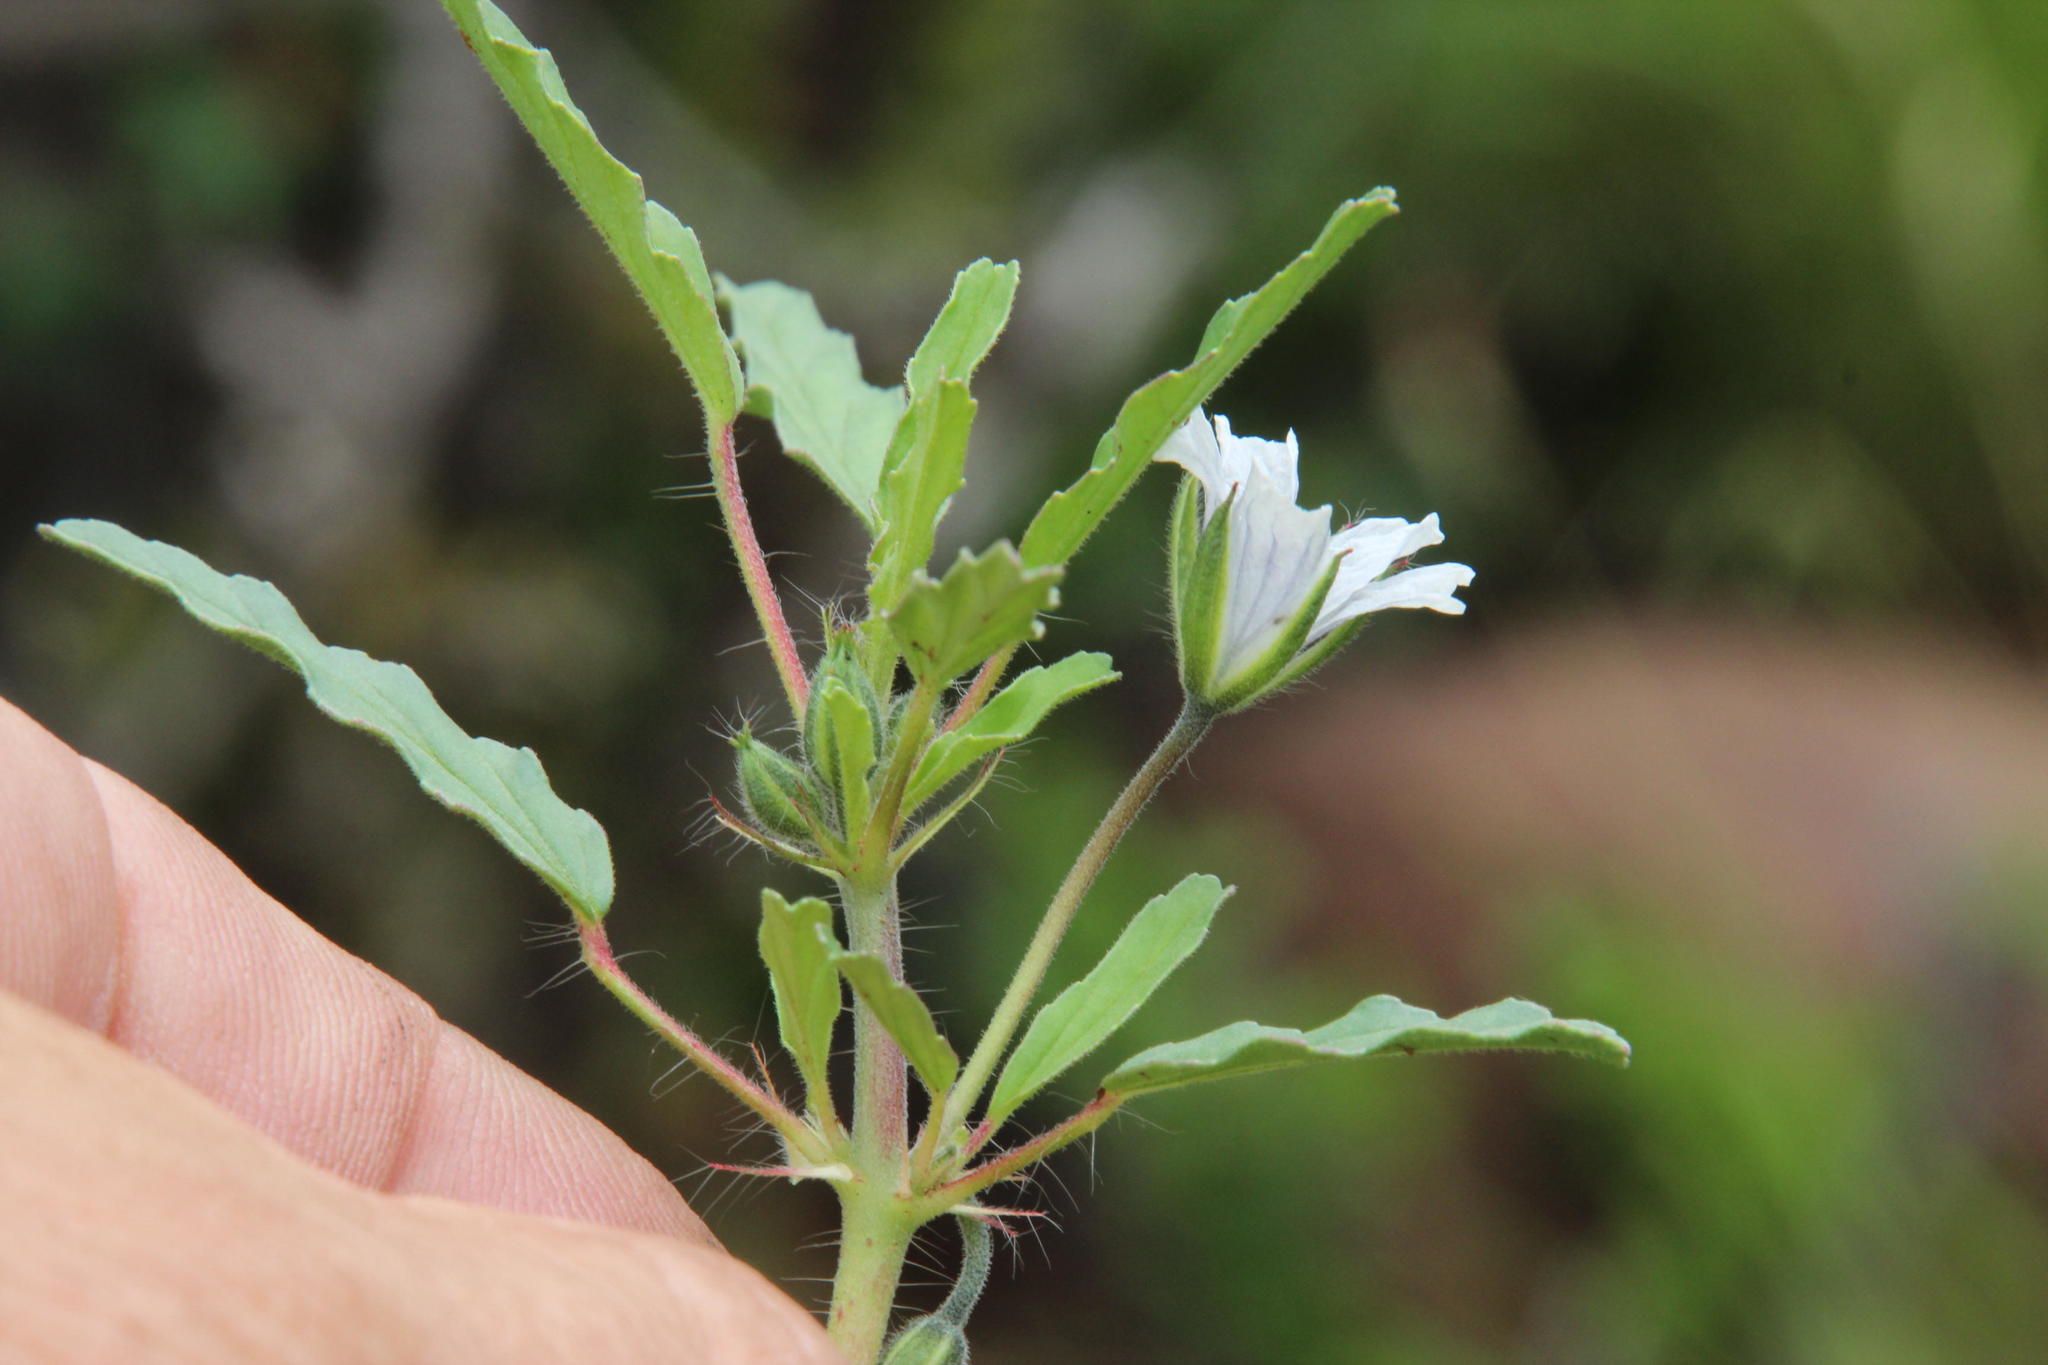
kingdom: Plantae
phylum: Tracheophyta
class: Magnoliopsida
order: Geraniales
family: Geraniaceae
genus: Monsonia
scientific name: Monsonia angustifolia
